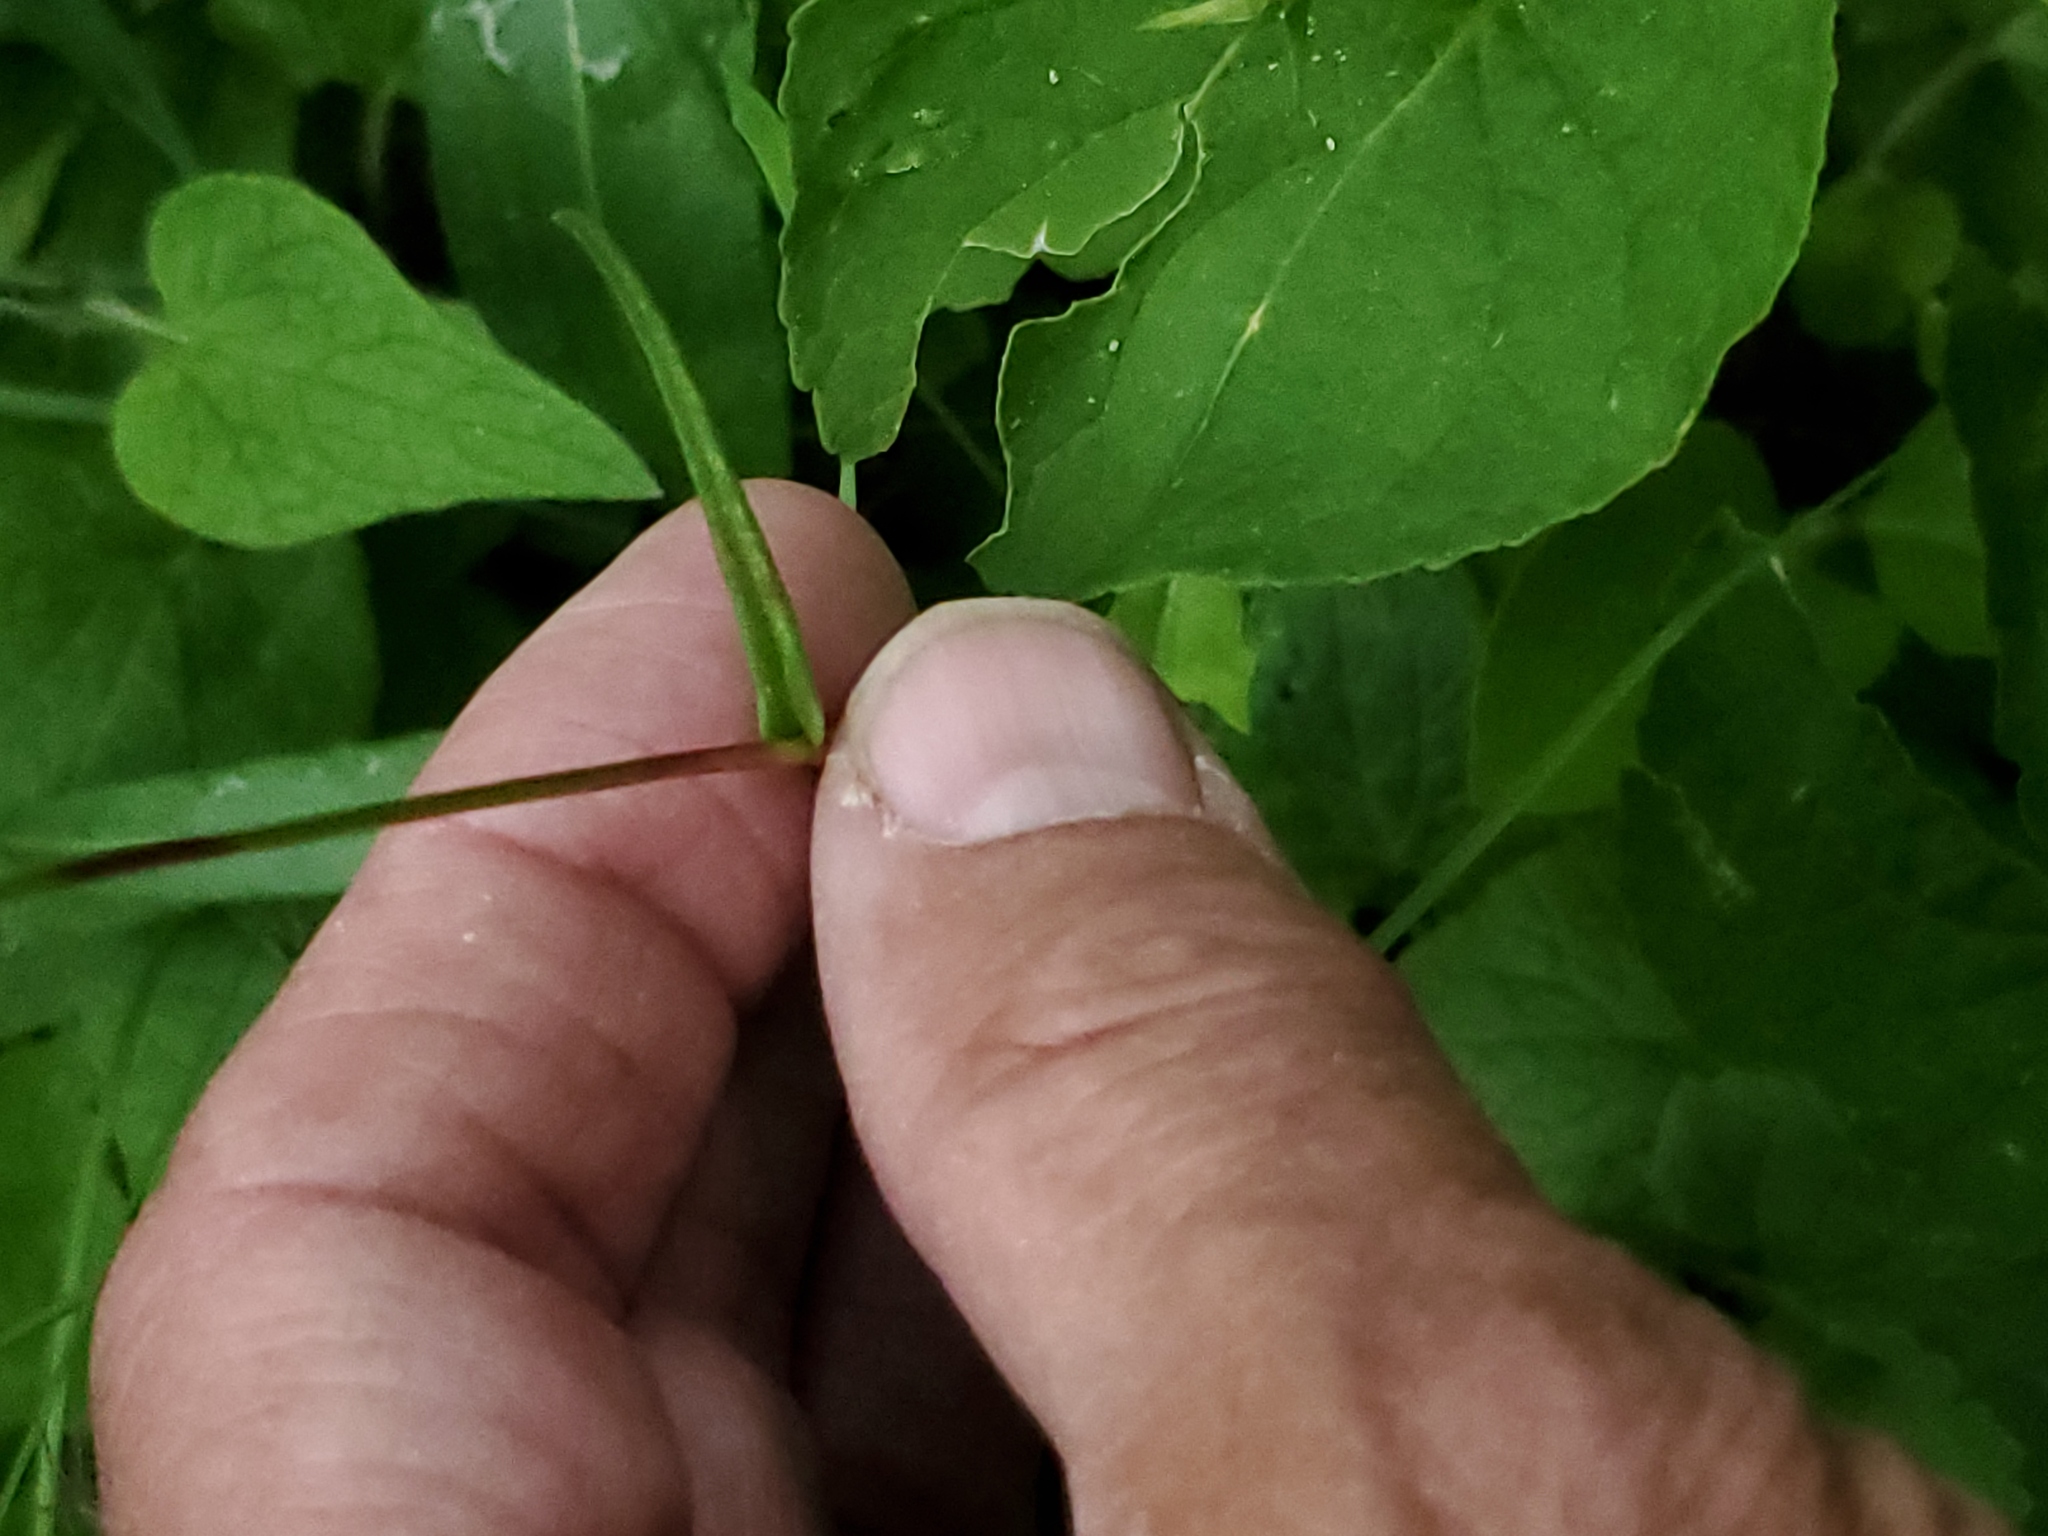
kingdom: Plantae
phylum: Tracheophyta
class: Magnoliopsida
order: Caryophyllales
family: Polygonaceae
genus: Bistorta
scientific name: Bistorta bistortoides
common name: American bistort
